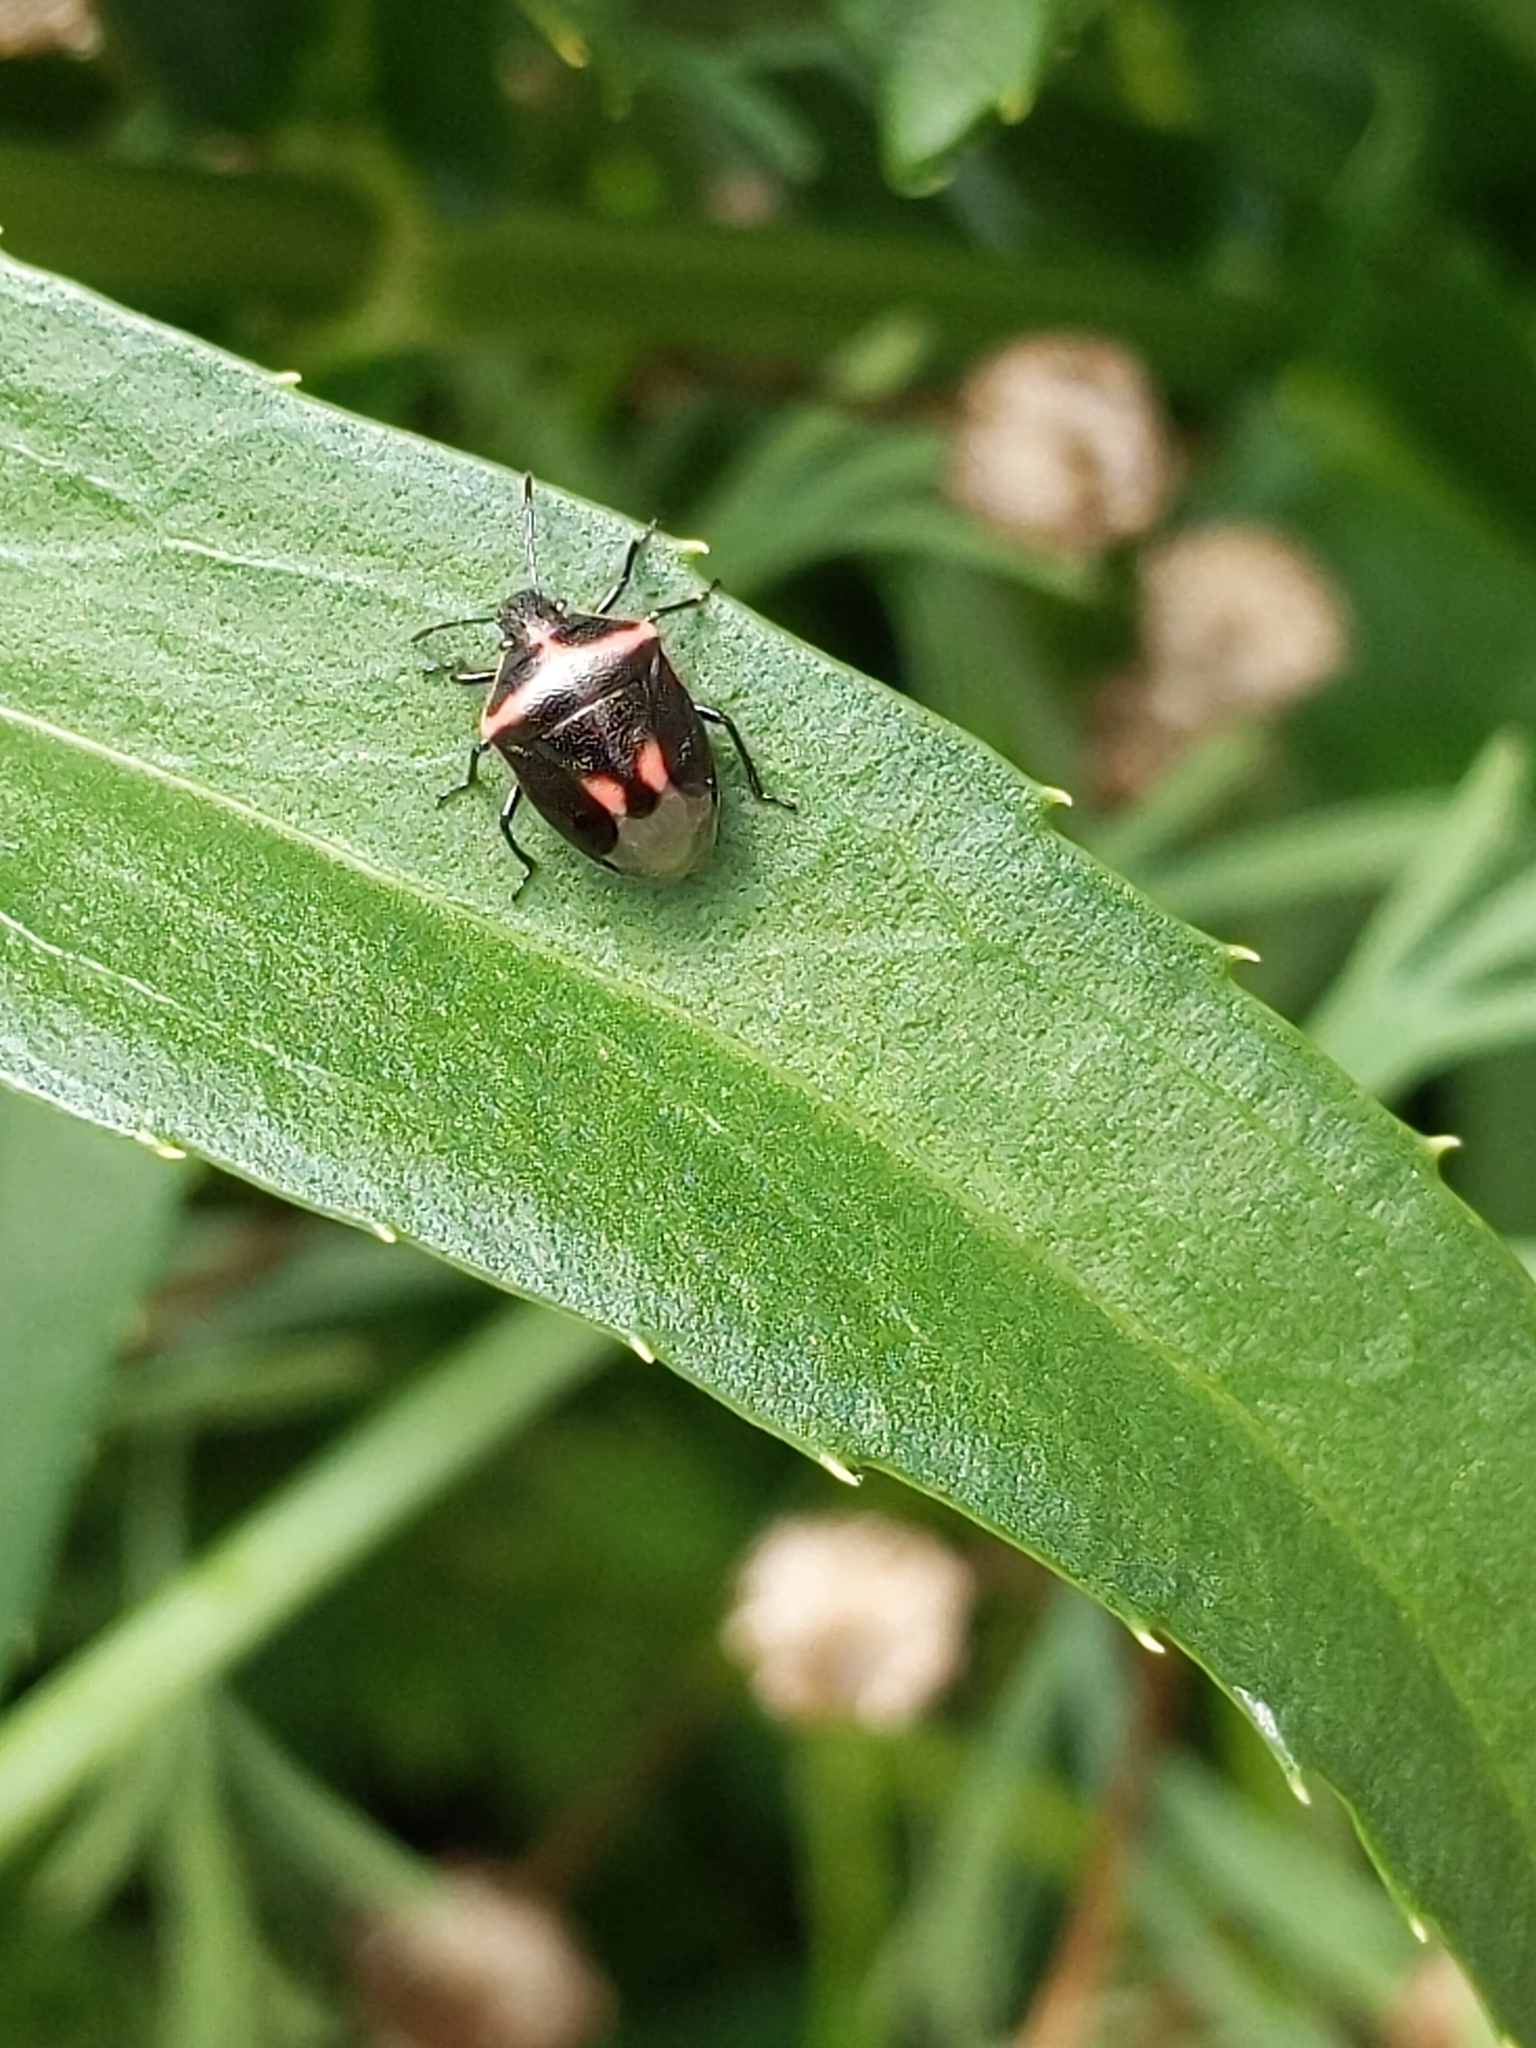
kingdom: Animalia
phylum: Arthropoda
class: Insecta
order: Hemiptera
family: Pentatomidae
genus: Cosmopepla
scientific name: Cosmopepla lintneriana
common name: Twice-stabbed stink bug
